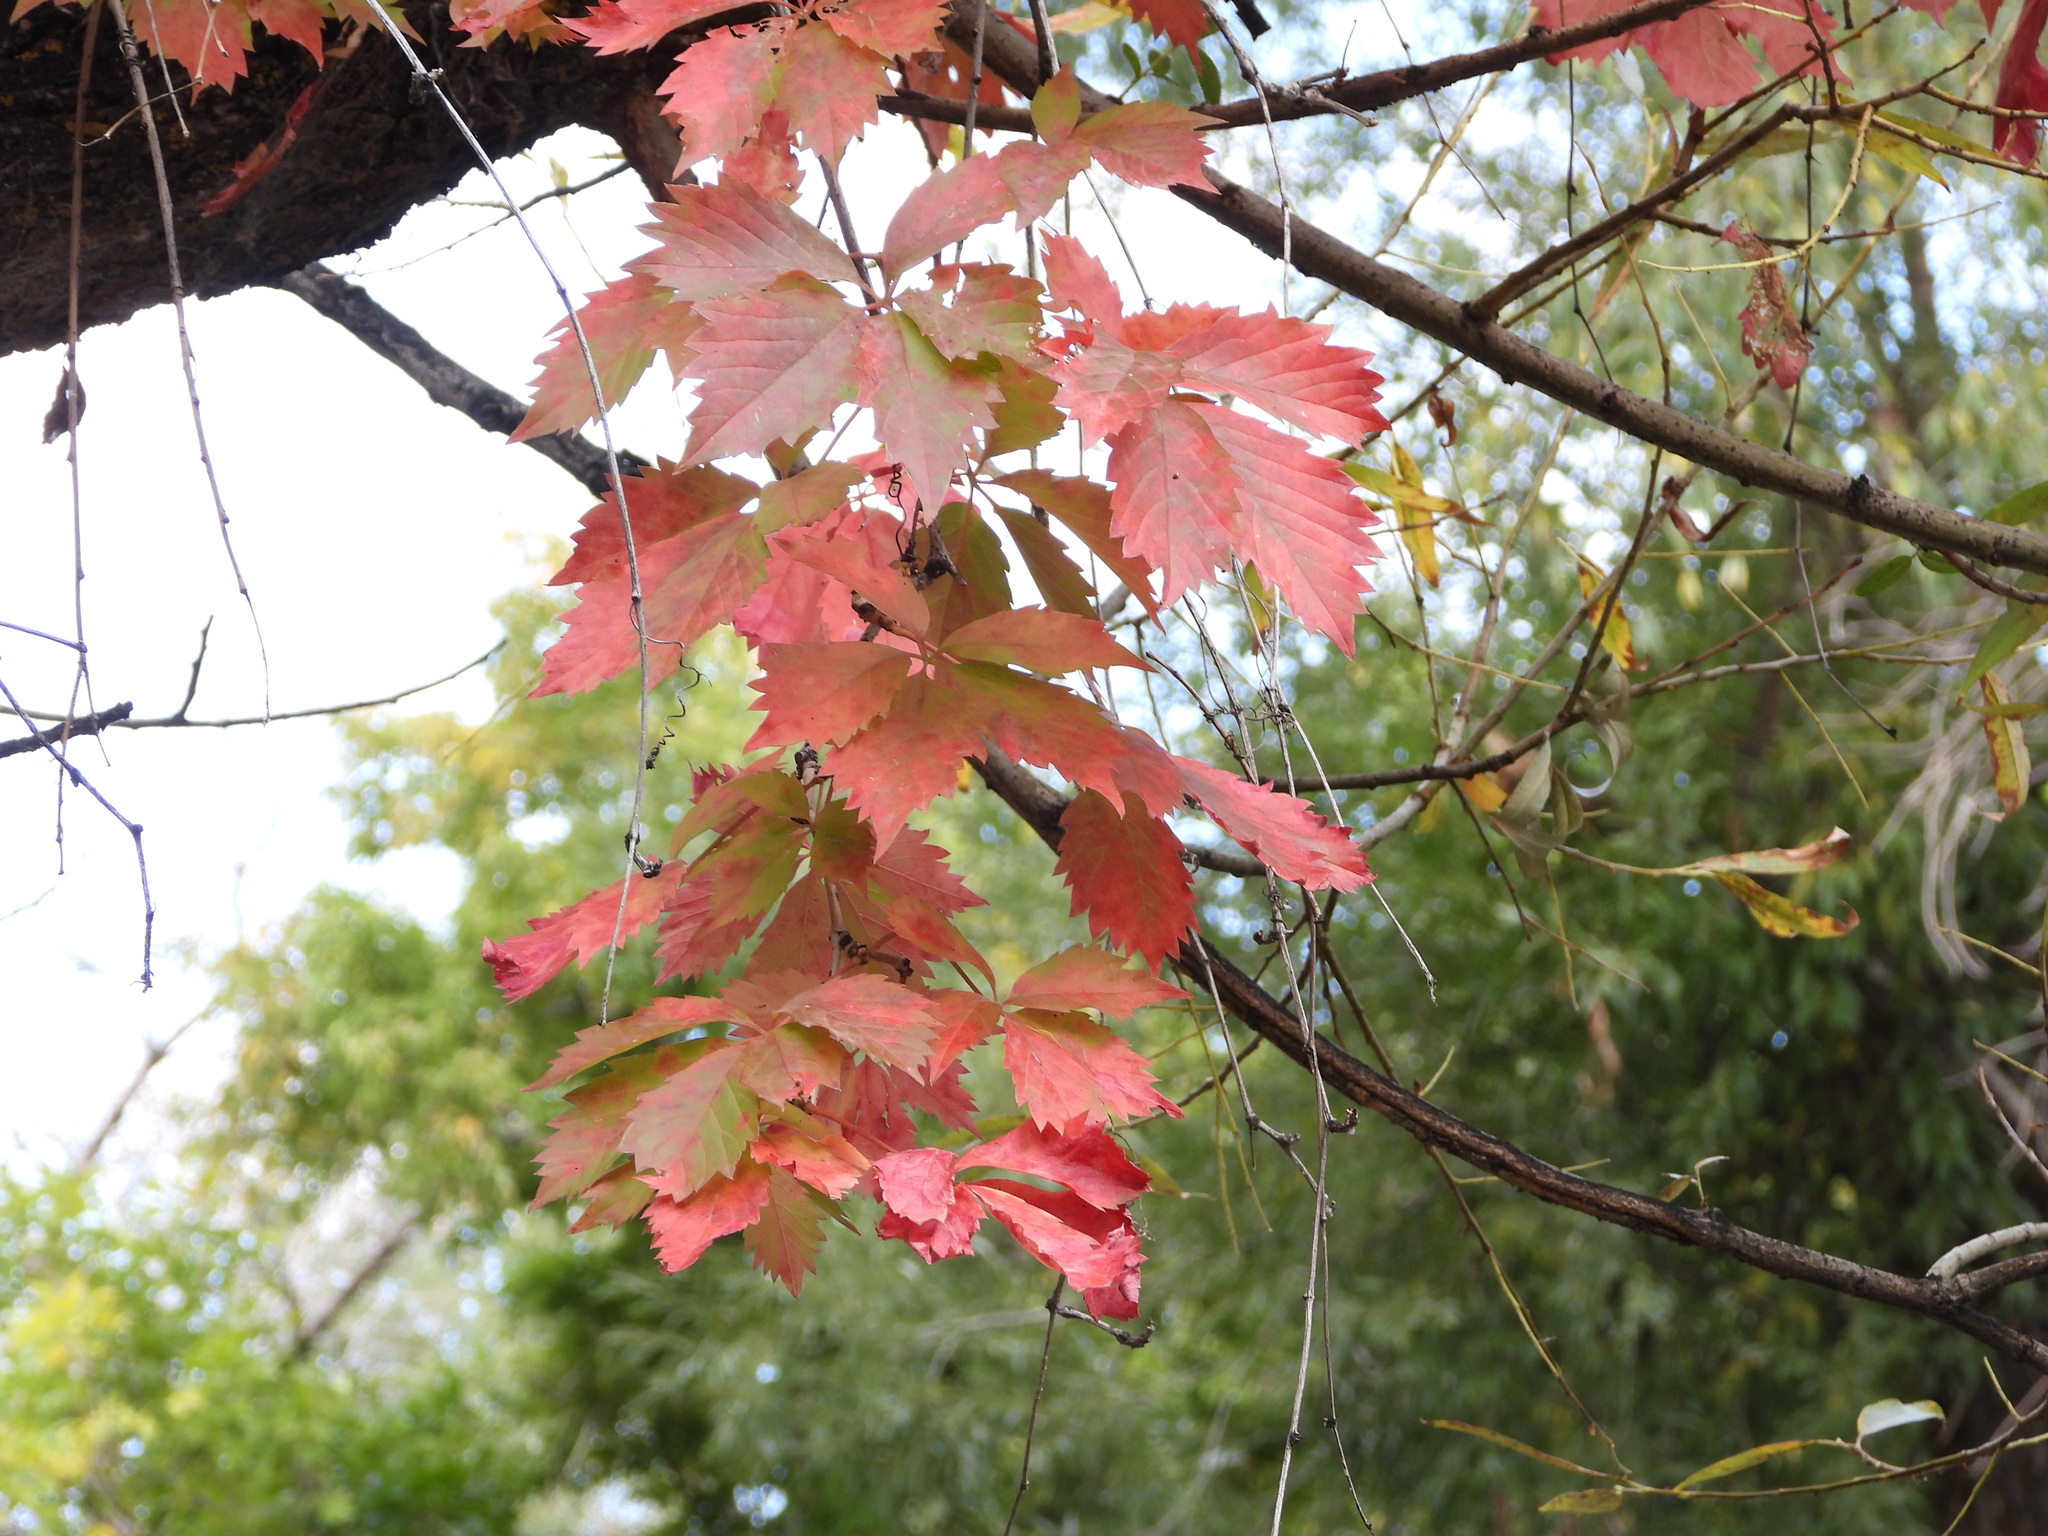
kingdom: Plantae
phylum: Tracheophyta
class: Magnoliopsida
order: Vitales
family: Vitaceae
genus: Parthenocissus
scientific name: Parthenocissus quinquefolia
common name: Virginia-creeper
